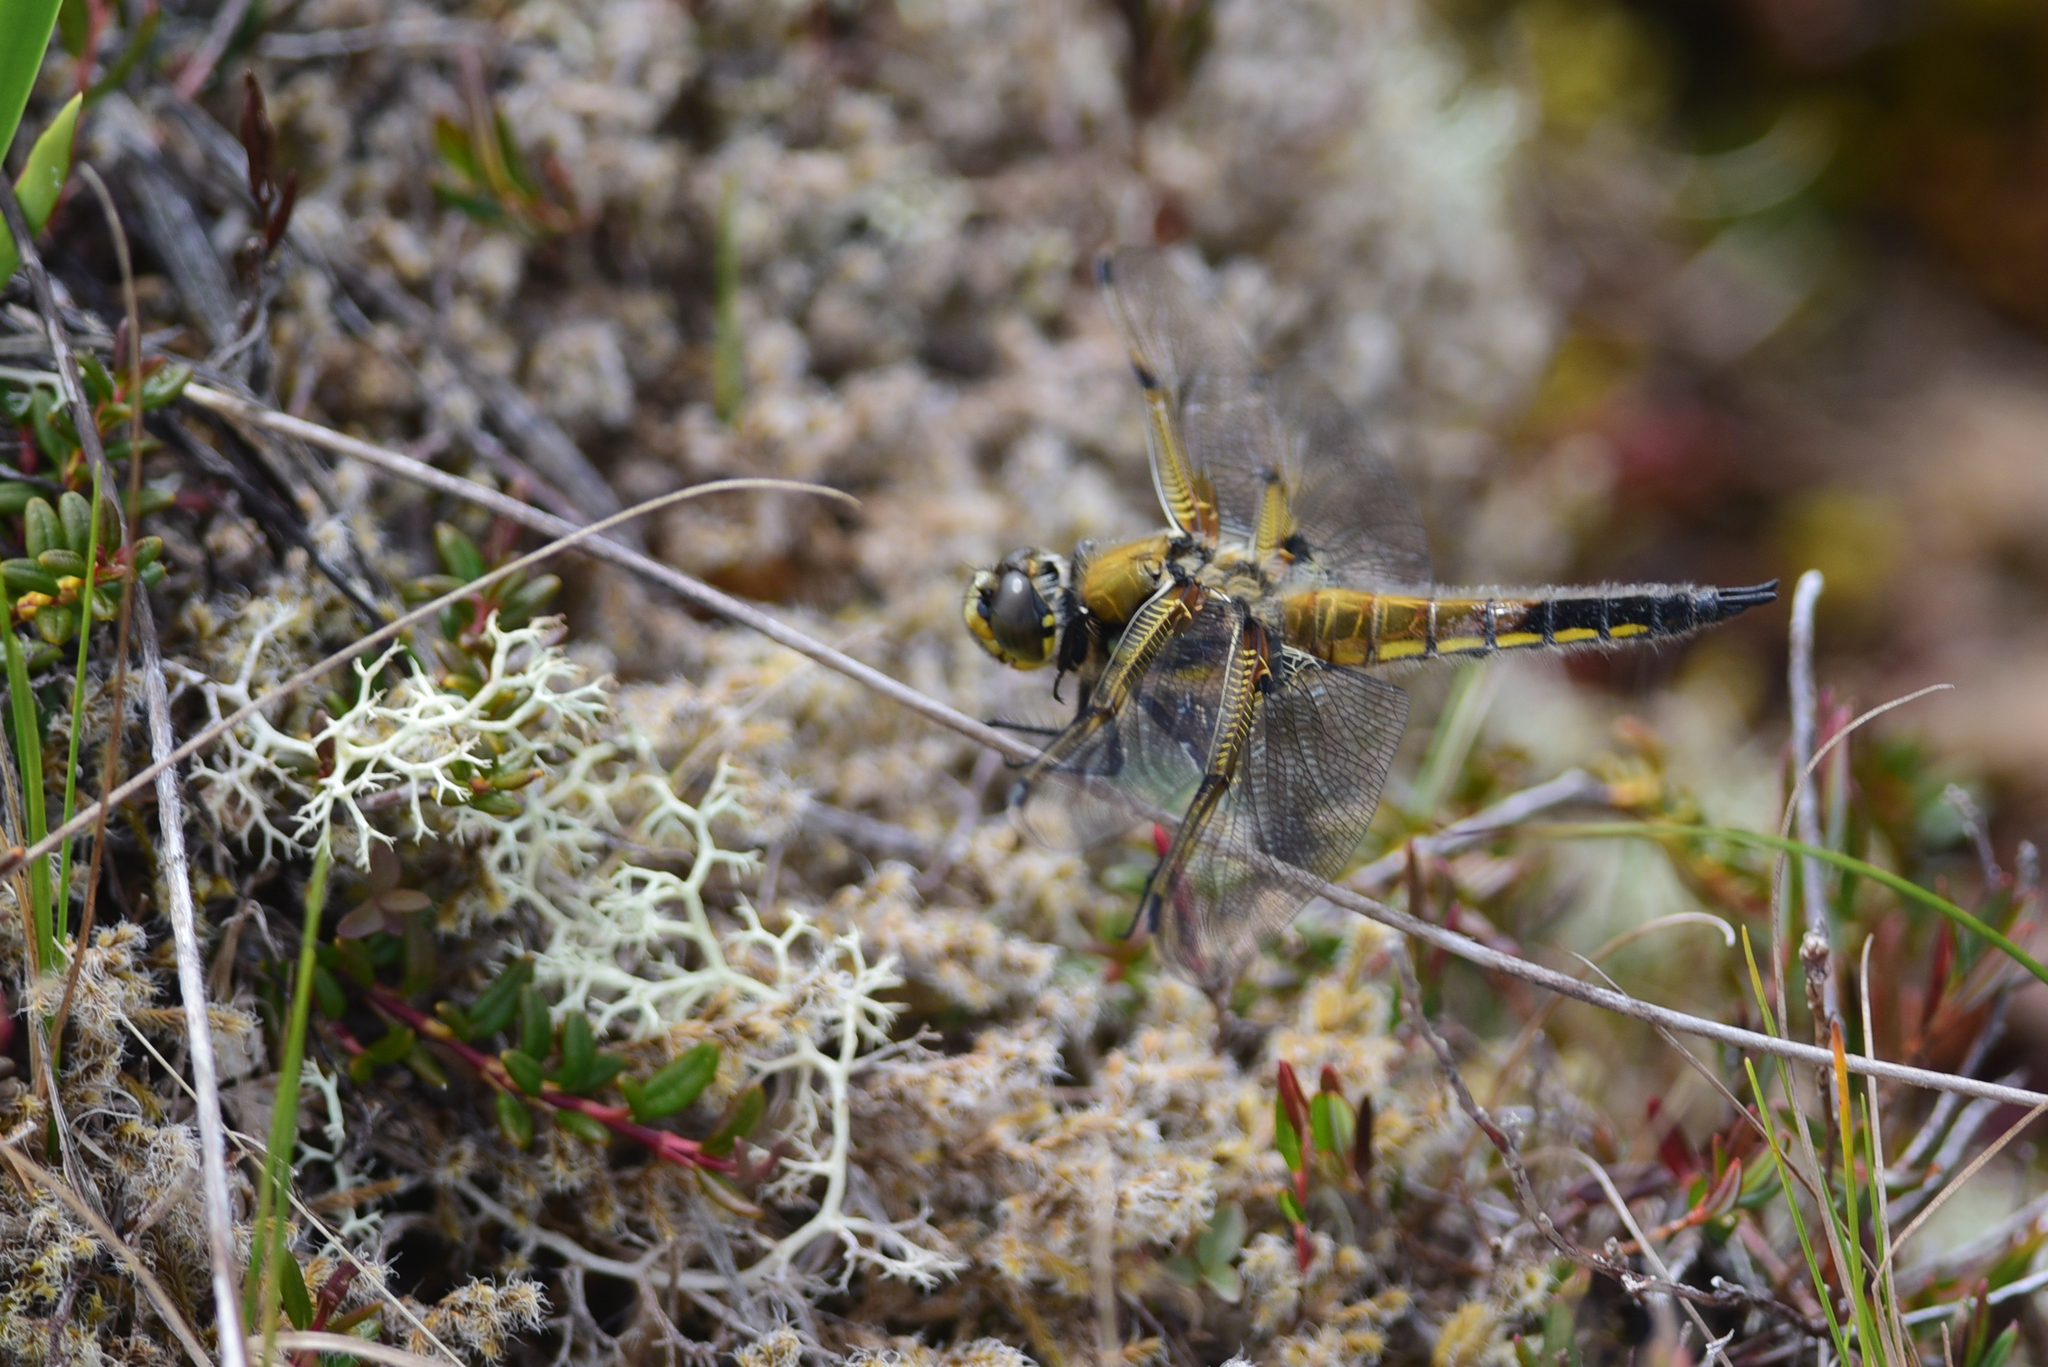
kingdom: Animalia
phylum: Arthropoda
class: Insecta
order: Odonata
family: Libellulidae
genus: Libellula
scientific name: Libellula quadrimaculata
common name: Four-spotted chaser
